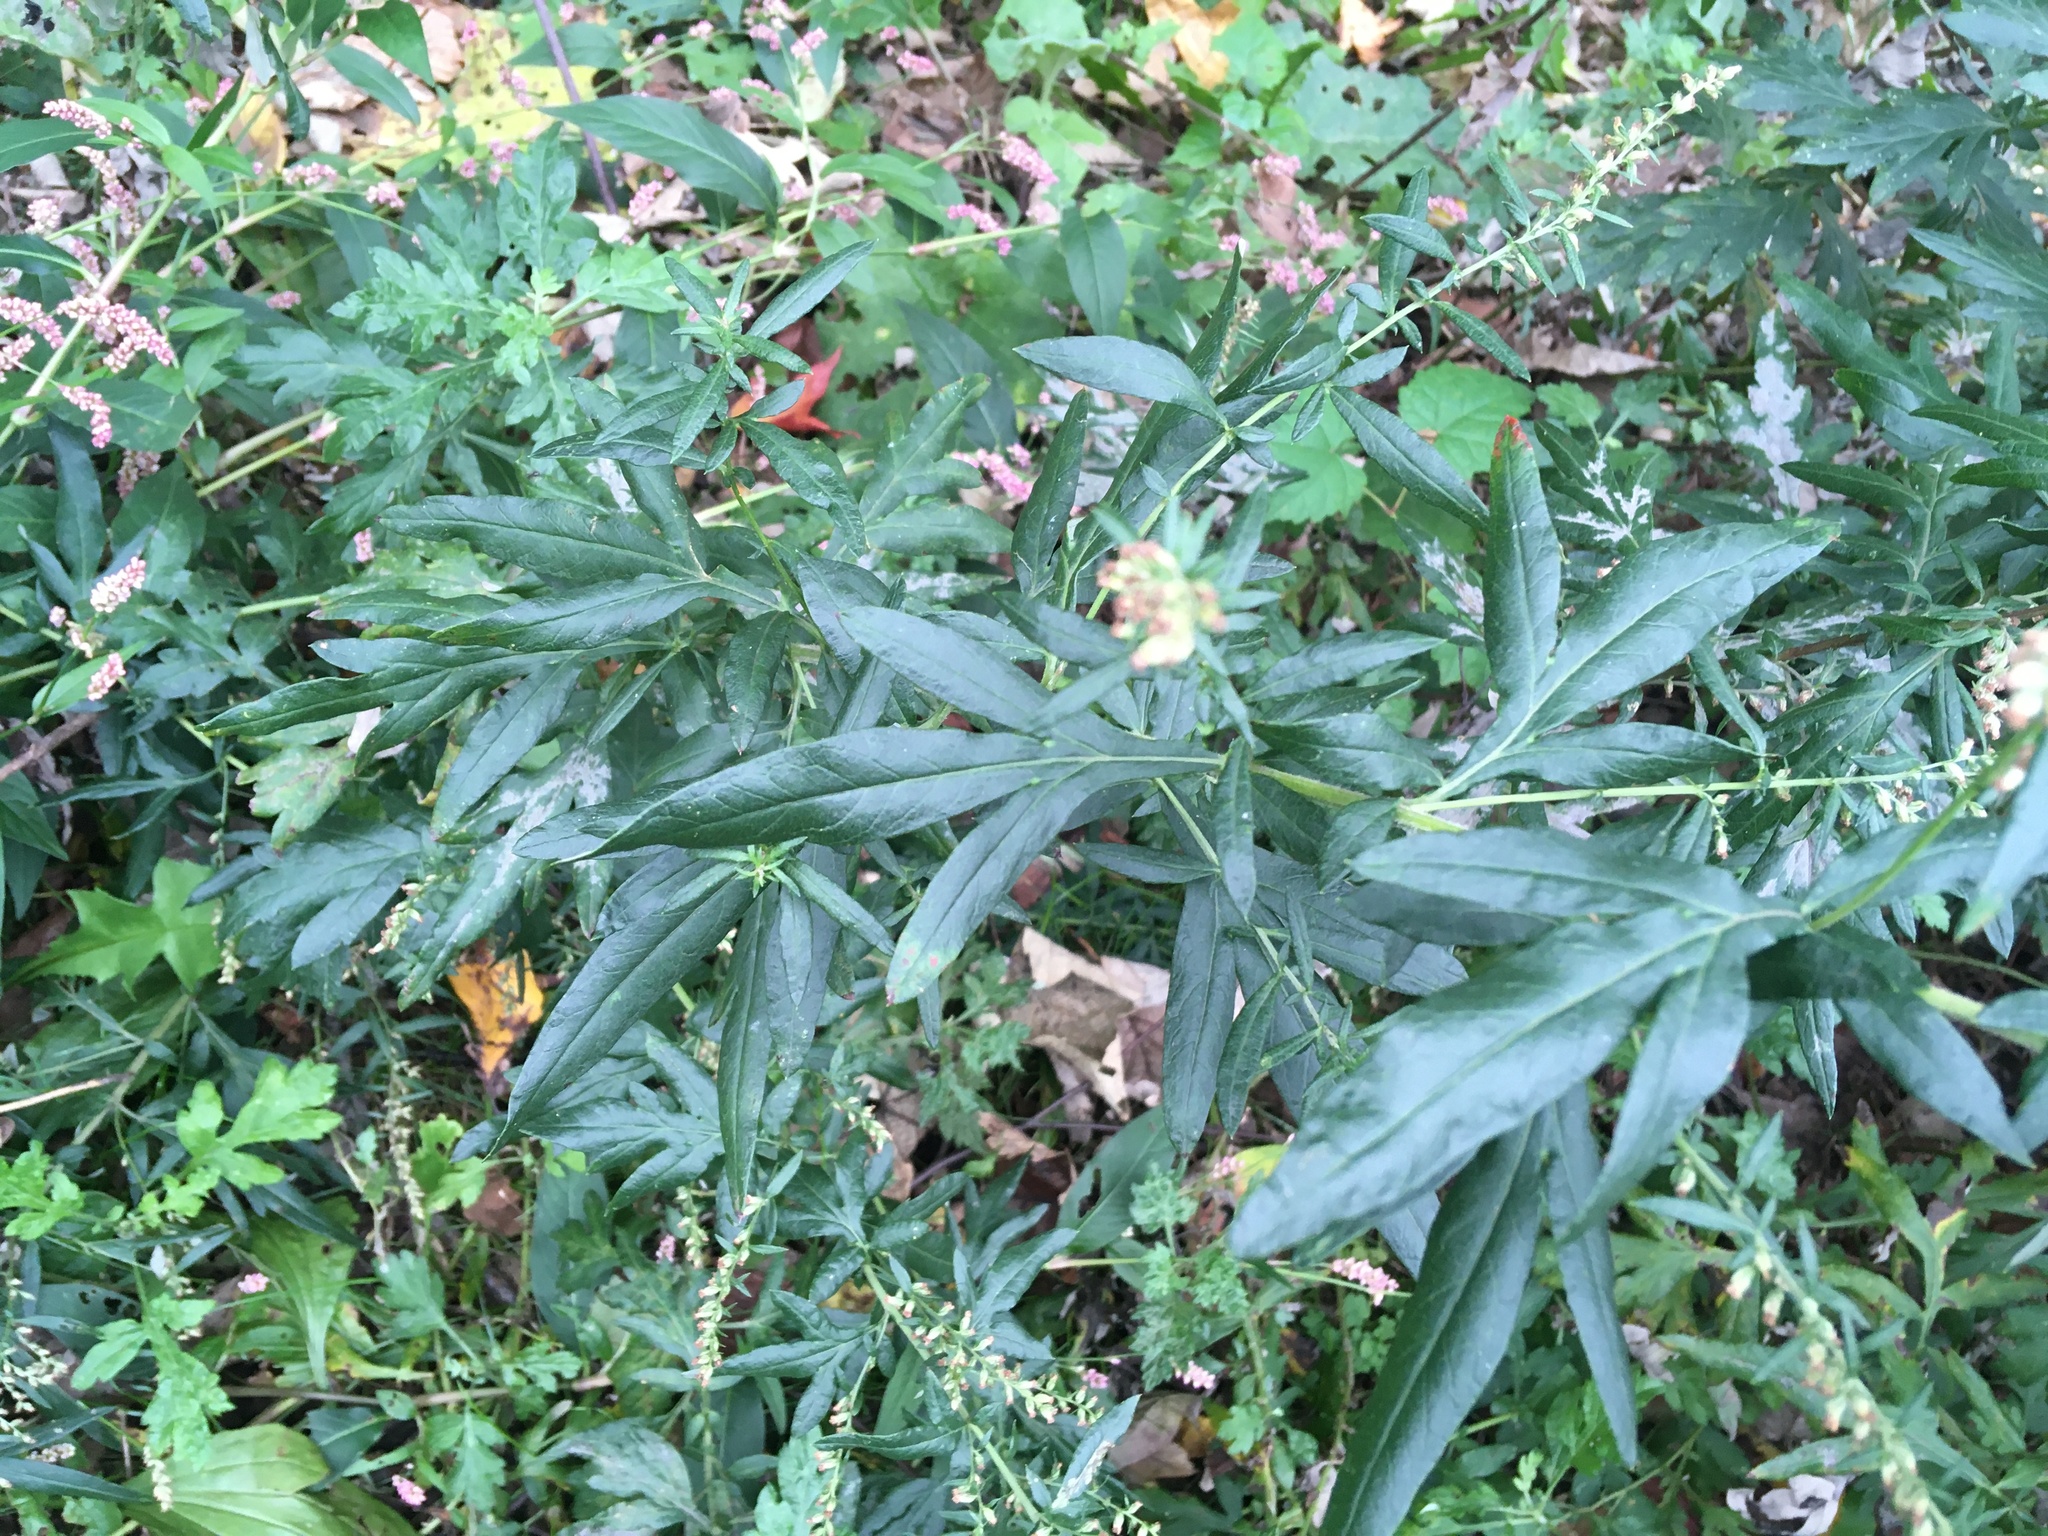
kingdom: Plantae
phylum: Tracheophyta
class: Magnoliopsida
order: Asterales
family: Asteraceae
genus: Artemisia
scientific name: Artemisia vulgaris
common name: Mugwort
